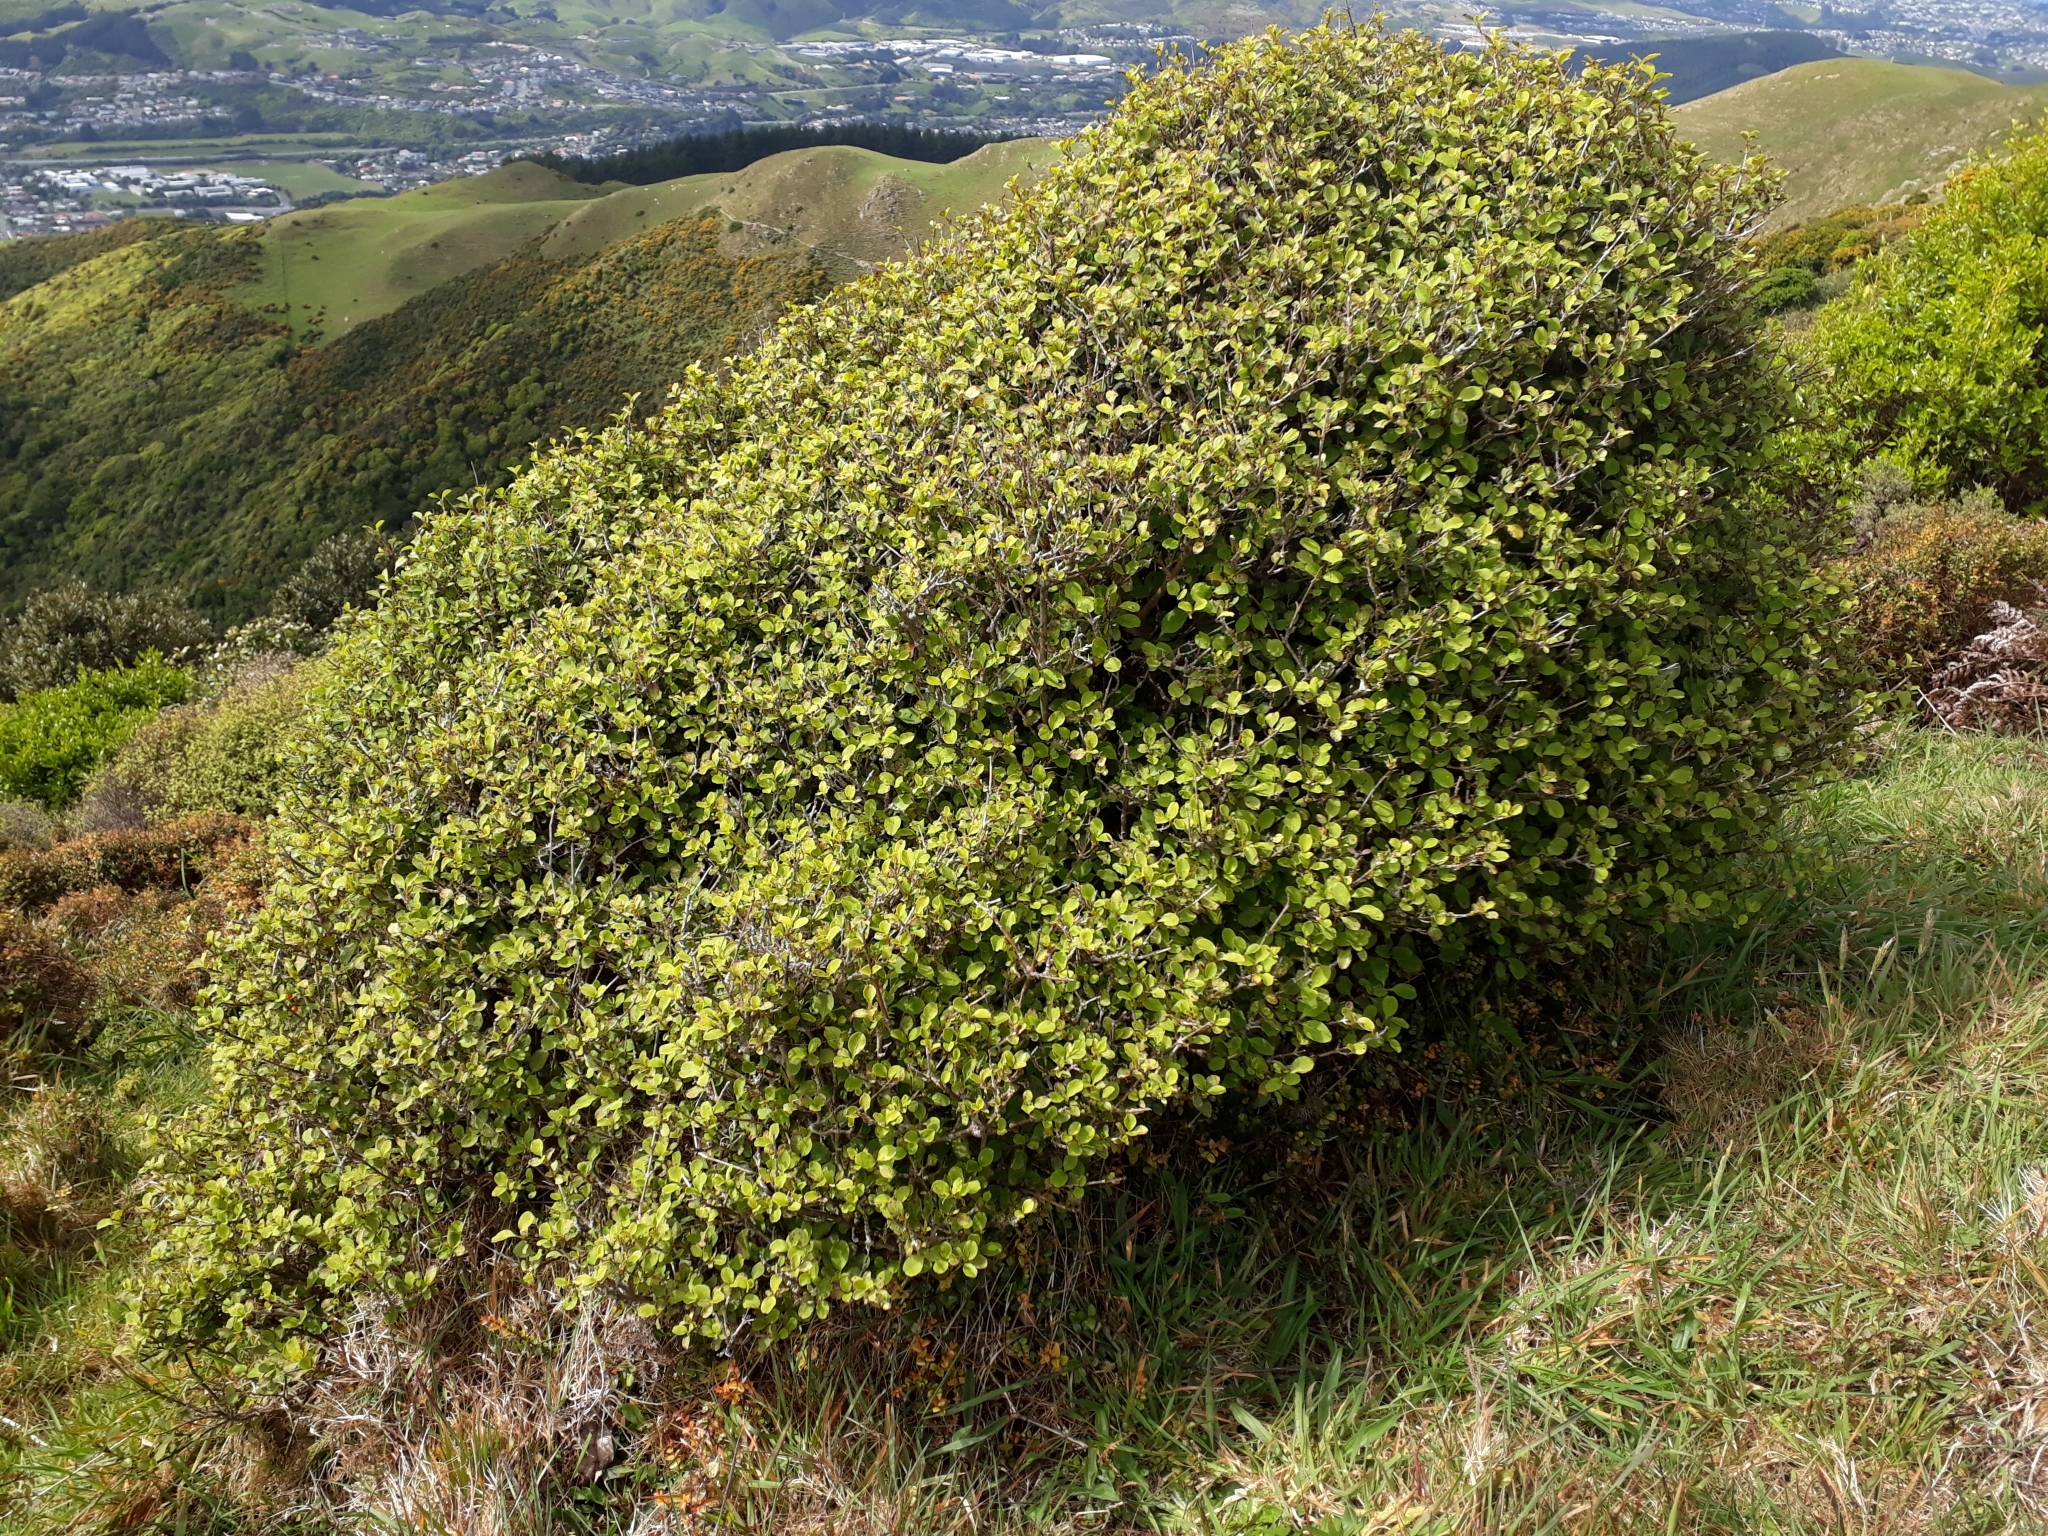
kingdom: Plantae
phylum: Tracheophyta
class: Magnoliopsida
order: Gentianales
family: Rubiaceae
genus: Coprosma
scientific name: Coprosma foetidissima
